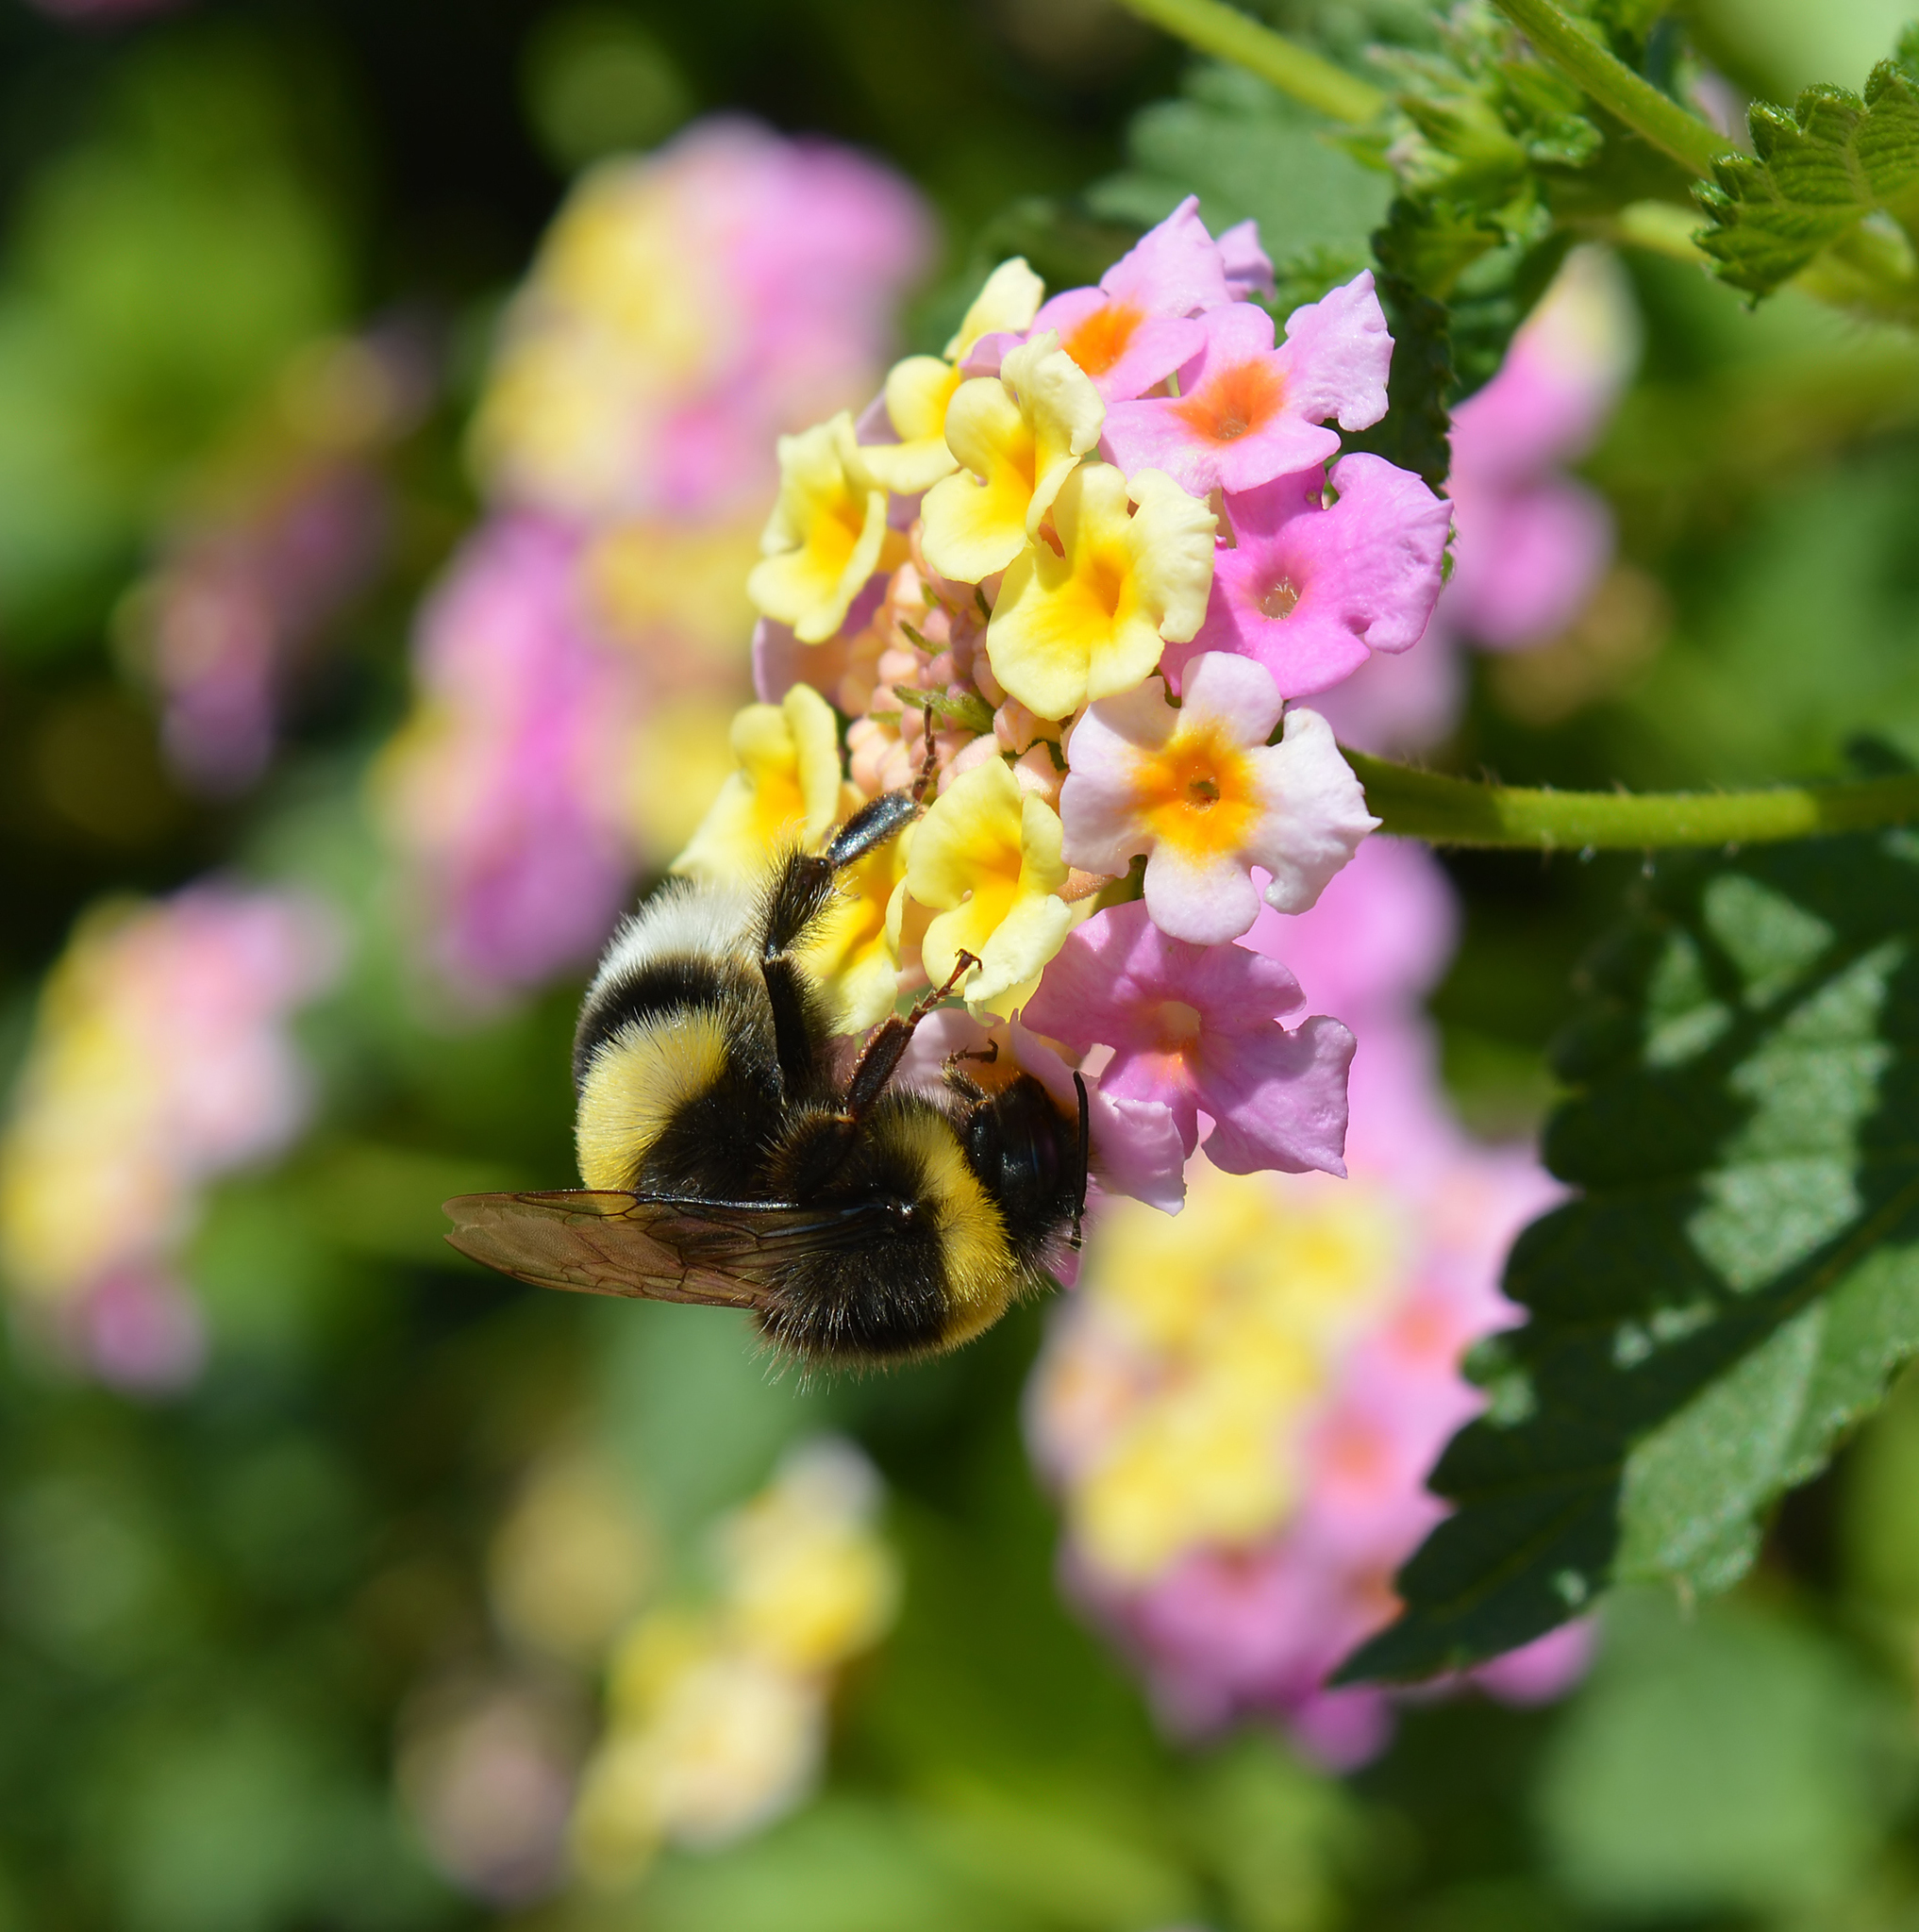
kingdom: Animalia
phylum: Arthropoda
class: Insecta
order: Hymenoptera
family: Apidae
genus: Bombus
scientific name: Bombus terrestris
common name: Buff-tailed bumblebee
